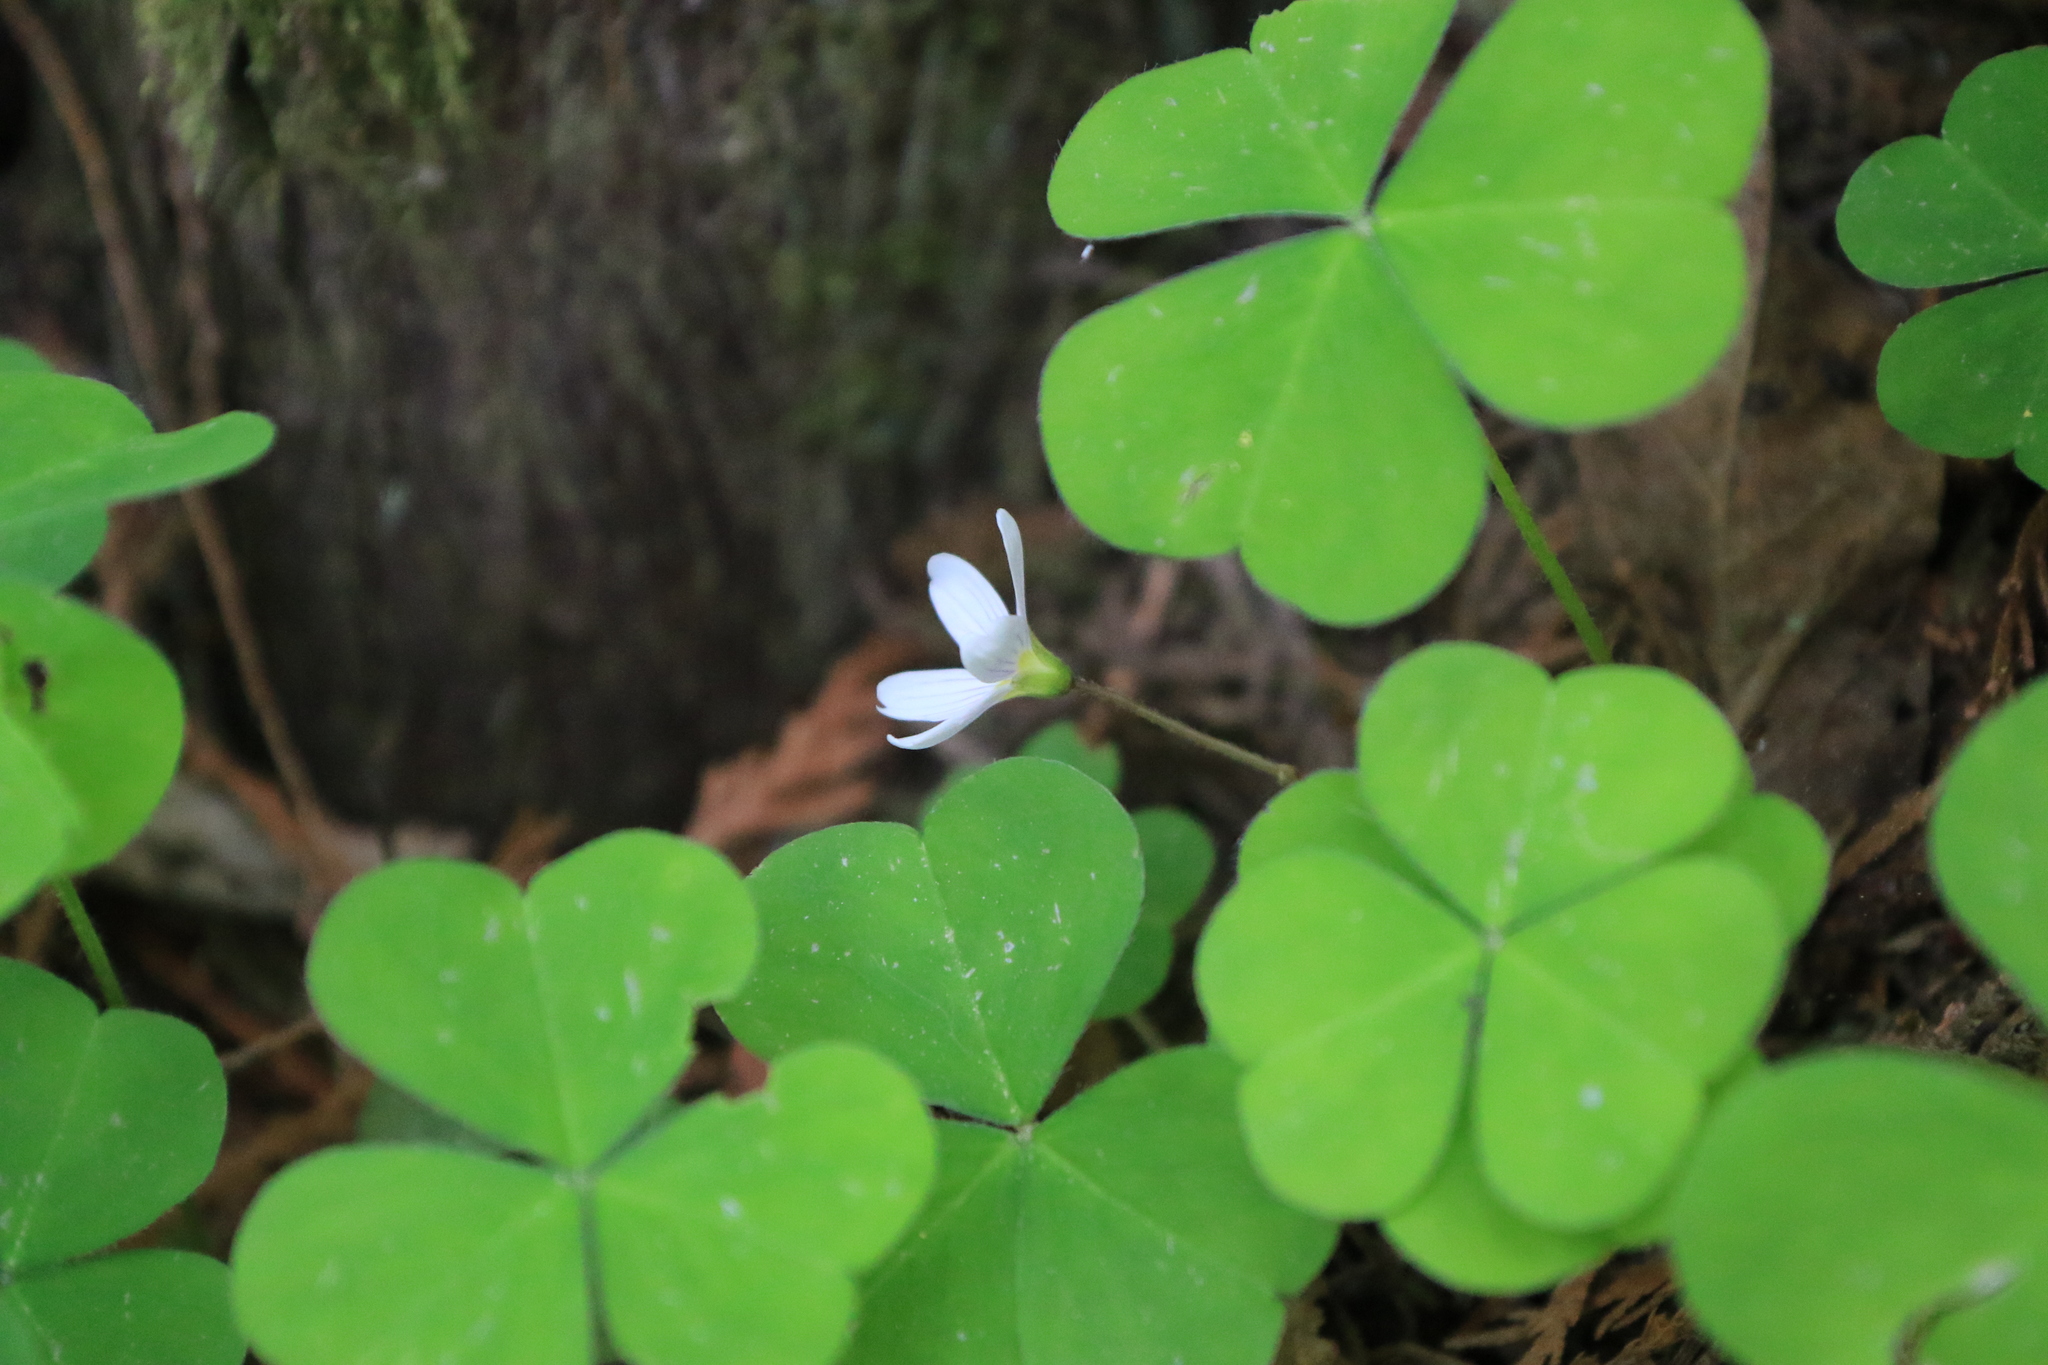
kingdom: Plantae
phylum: Tracheophyta
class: Magnoliopsida
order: Oxalidales
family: Oxalidaceae
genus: Oxalis
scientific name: Oxalis oregana
